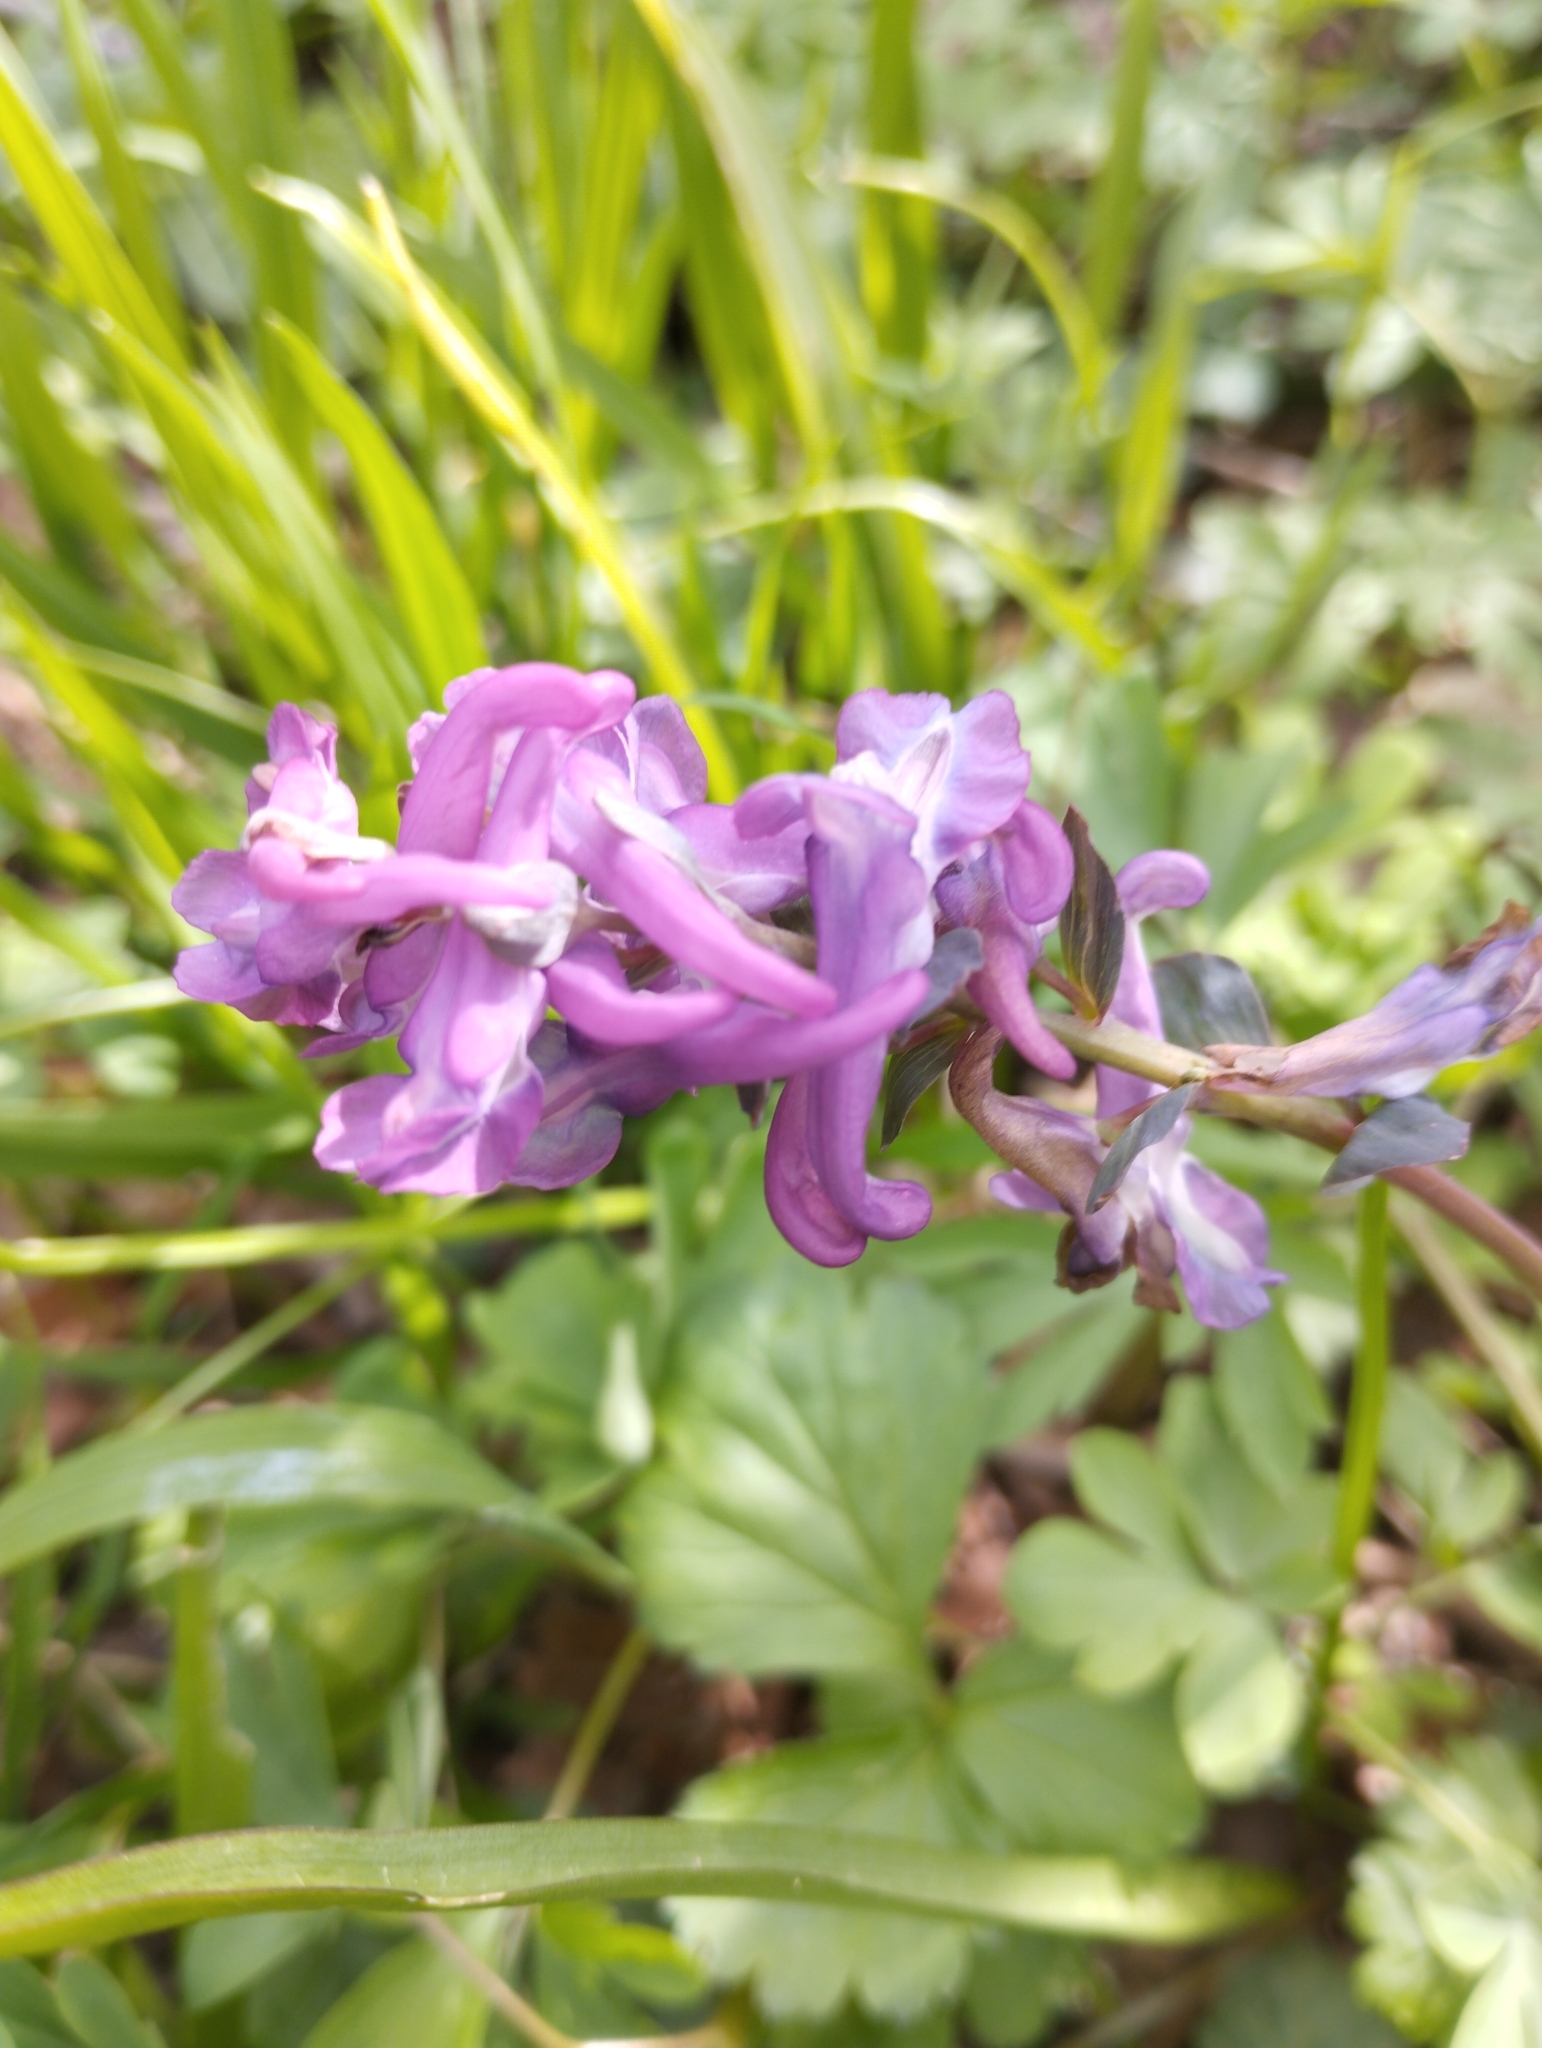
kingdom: Plantae
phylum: Tracheophyta
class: Magnoliopsida
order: Ranunculales
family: Papaveraceae
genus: Corydalis
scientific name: Corydalis cava
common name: Hollowroot
